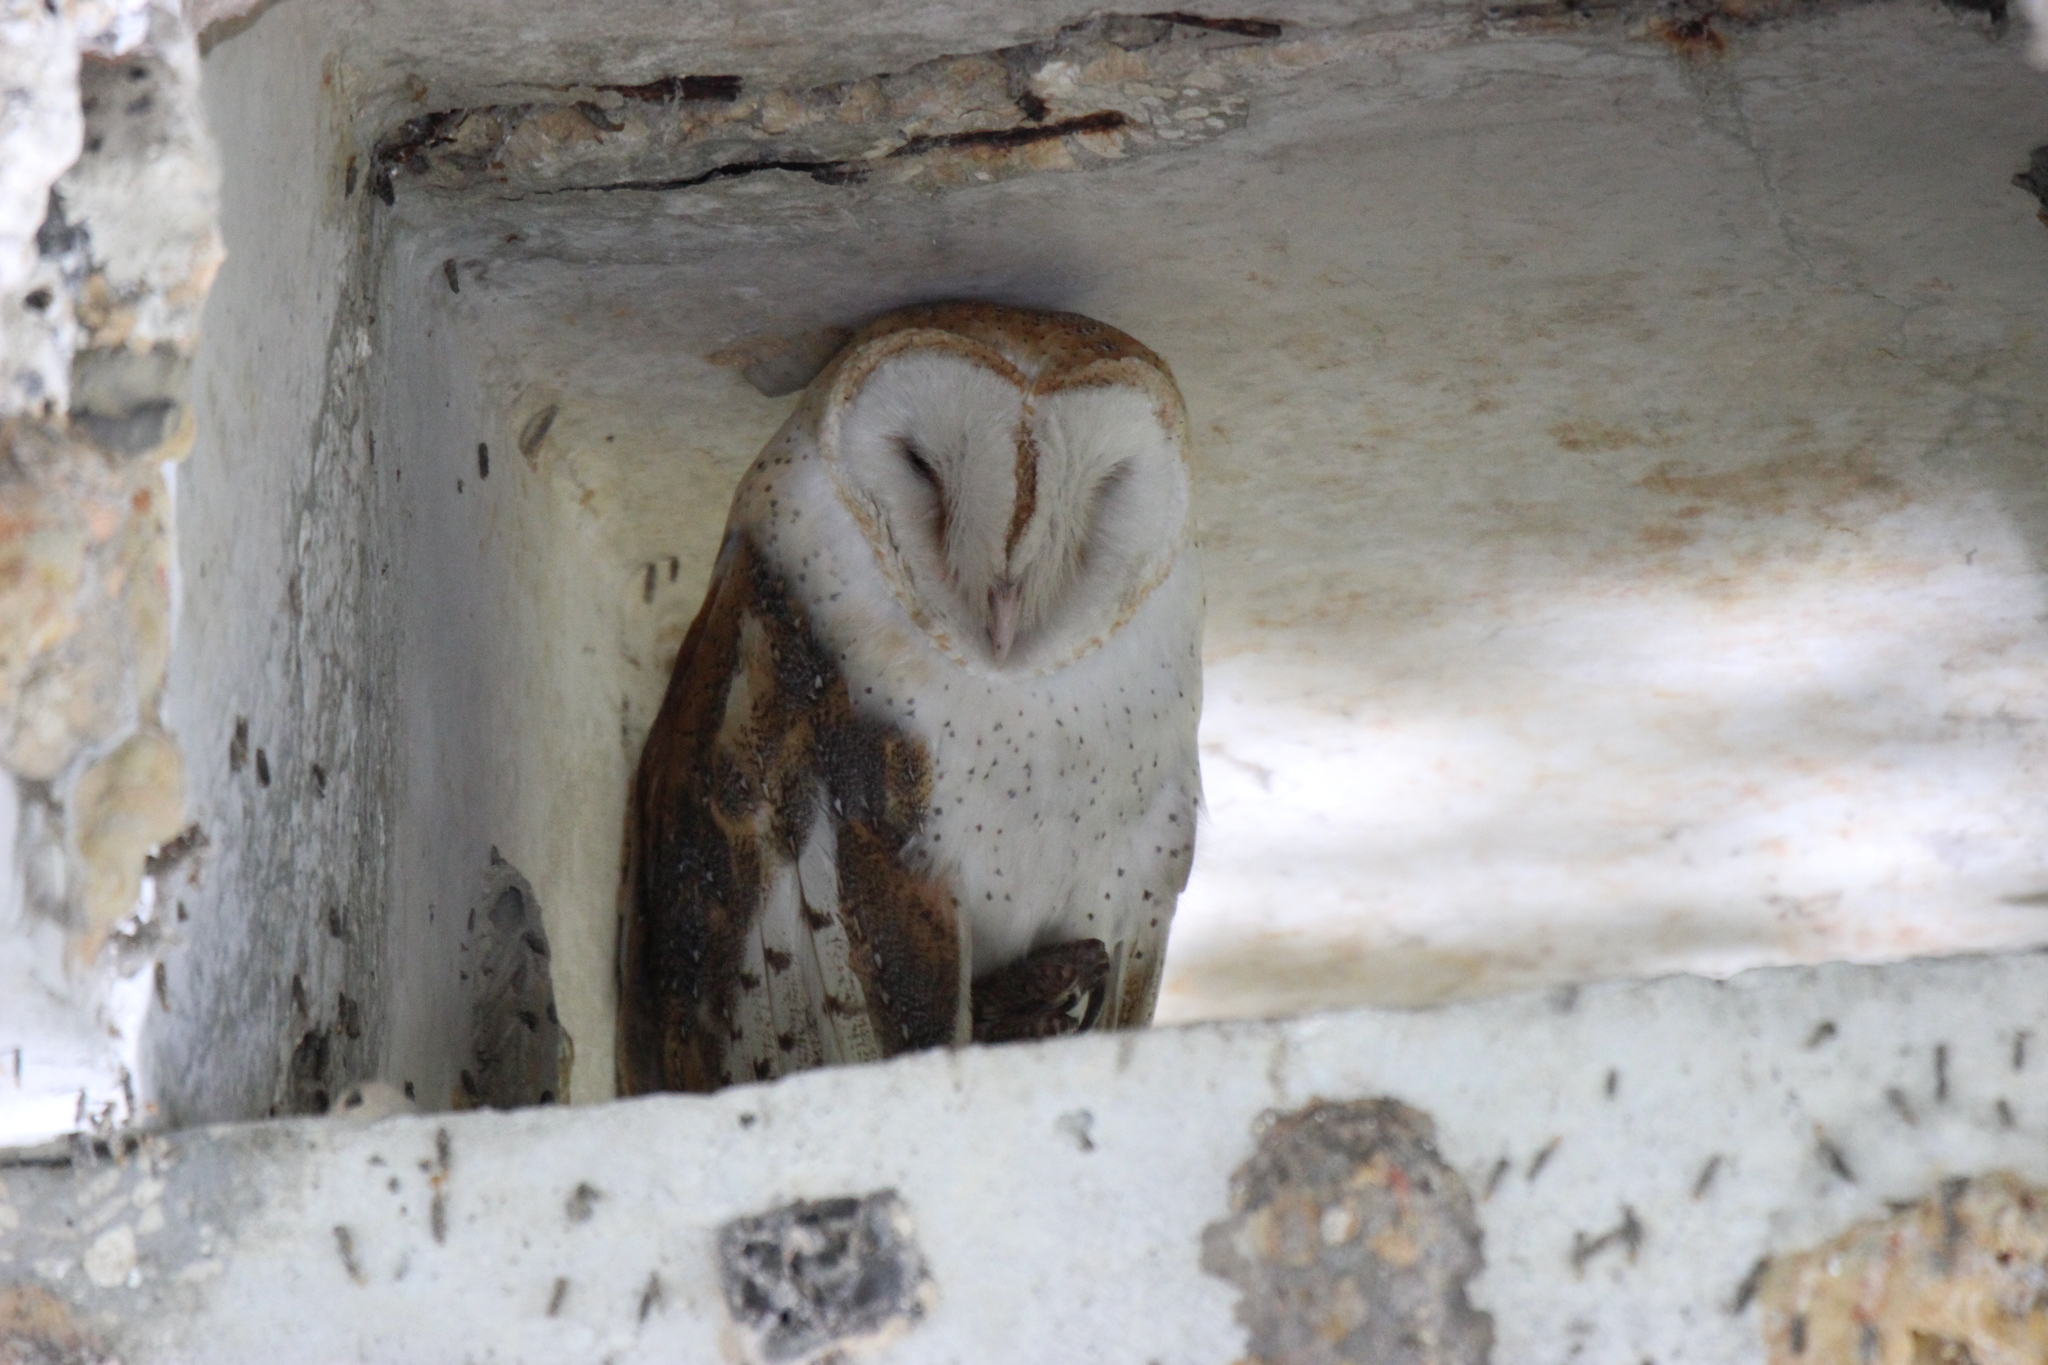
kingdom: Animalia
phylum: Chordata
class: Aves
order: Strigiformes
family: Tytonidae
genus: Tyto
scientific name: Tyto alba
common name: Barn owl
